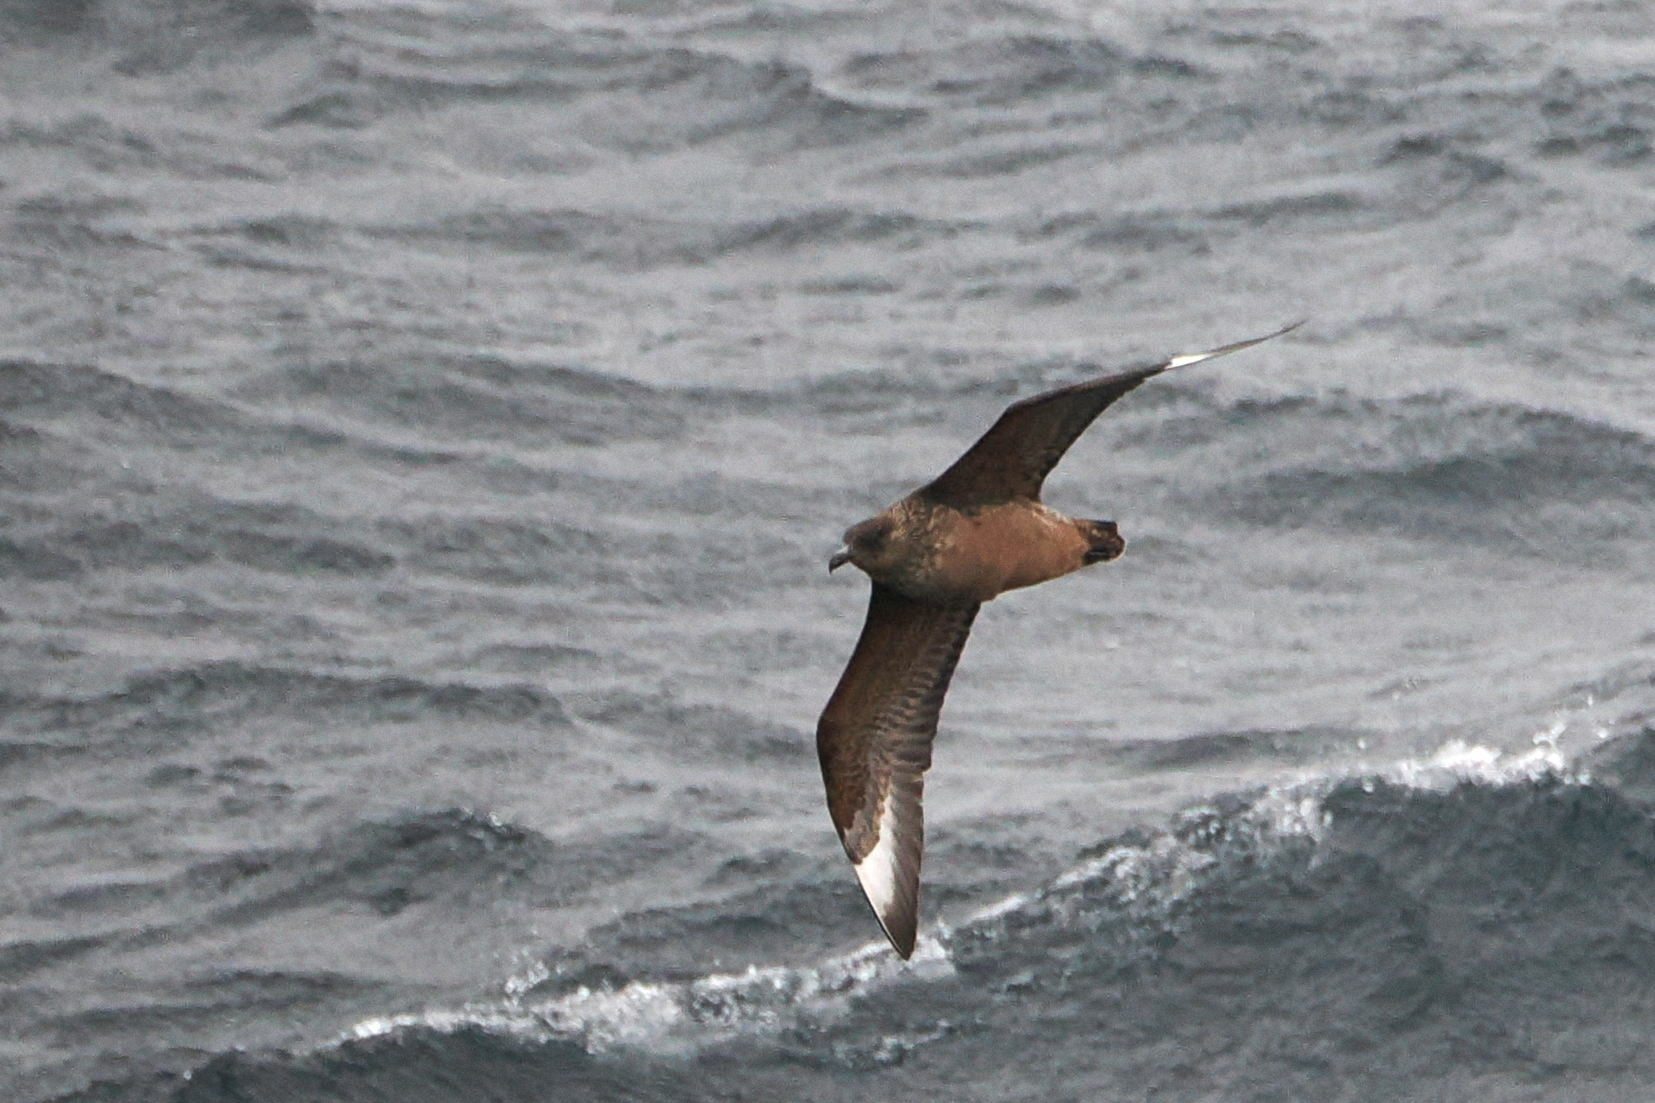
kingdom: Animalia
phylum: Chordata
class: Aves
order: Charadriiformes
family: Stercorariidae
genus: Stercorarius
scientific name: Stercorarius chilensis
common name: Chilean skua
